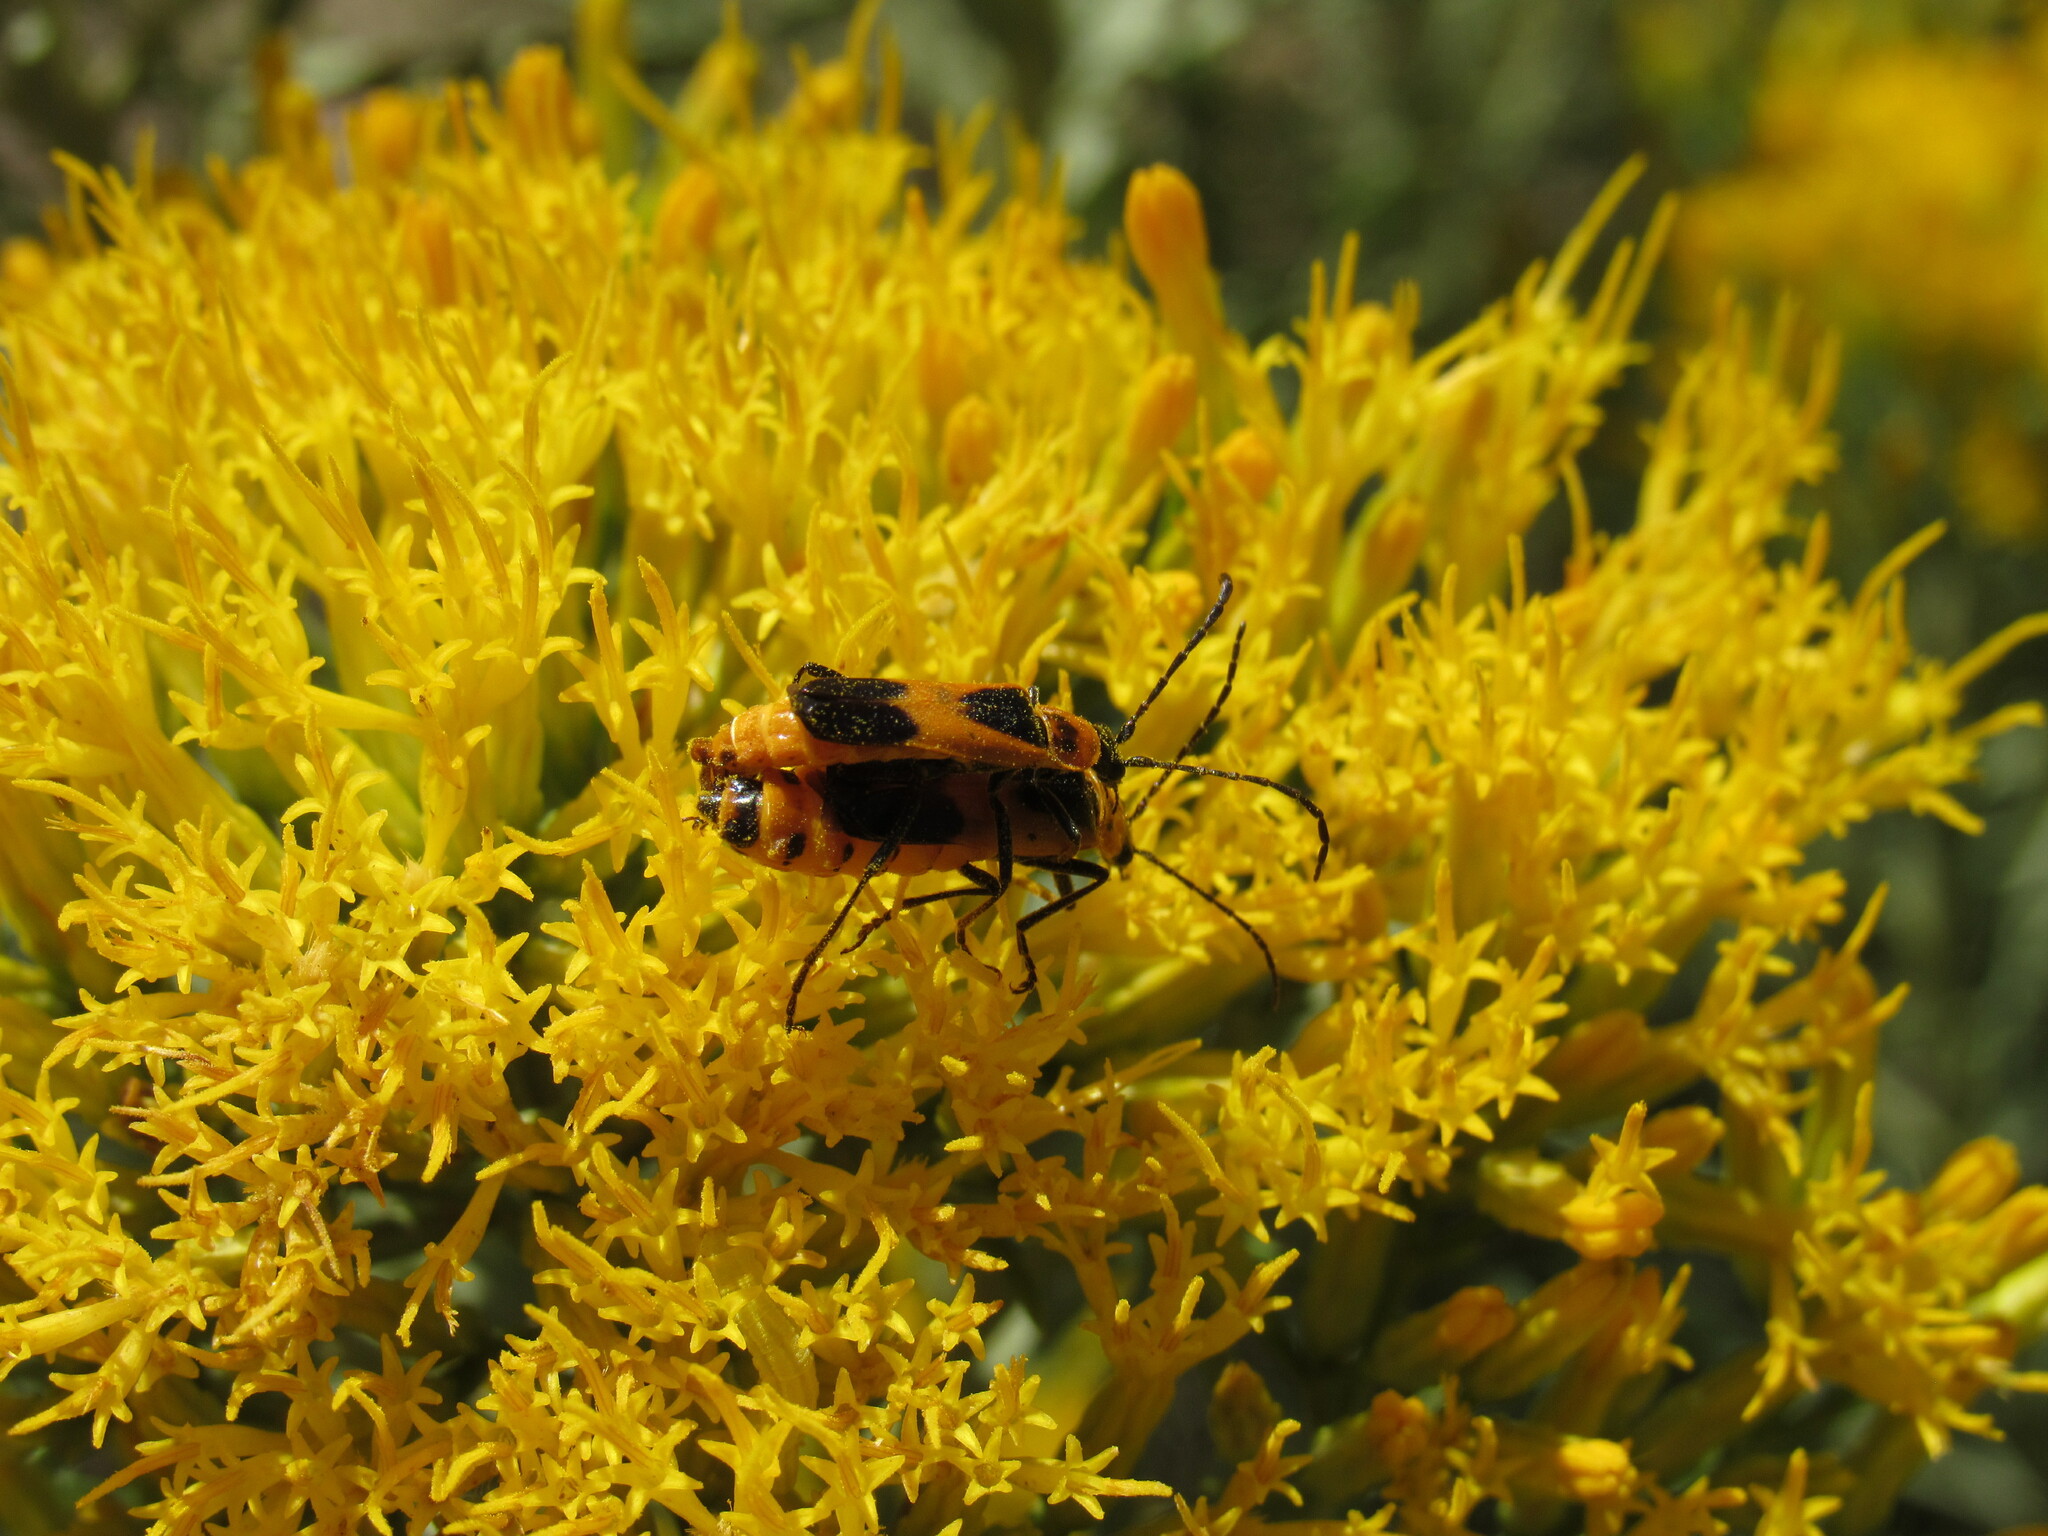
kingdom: Animalia
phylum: Arthropoda
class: Insecta
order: Coleoptera
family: Cantharidae
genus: Chauliognathus
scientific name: Chauliognathus basalis
